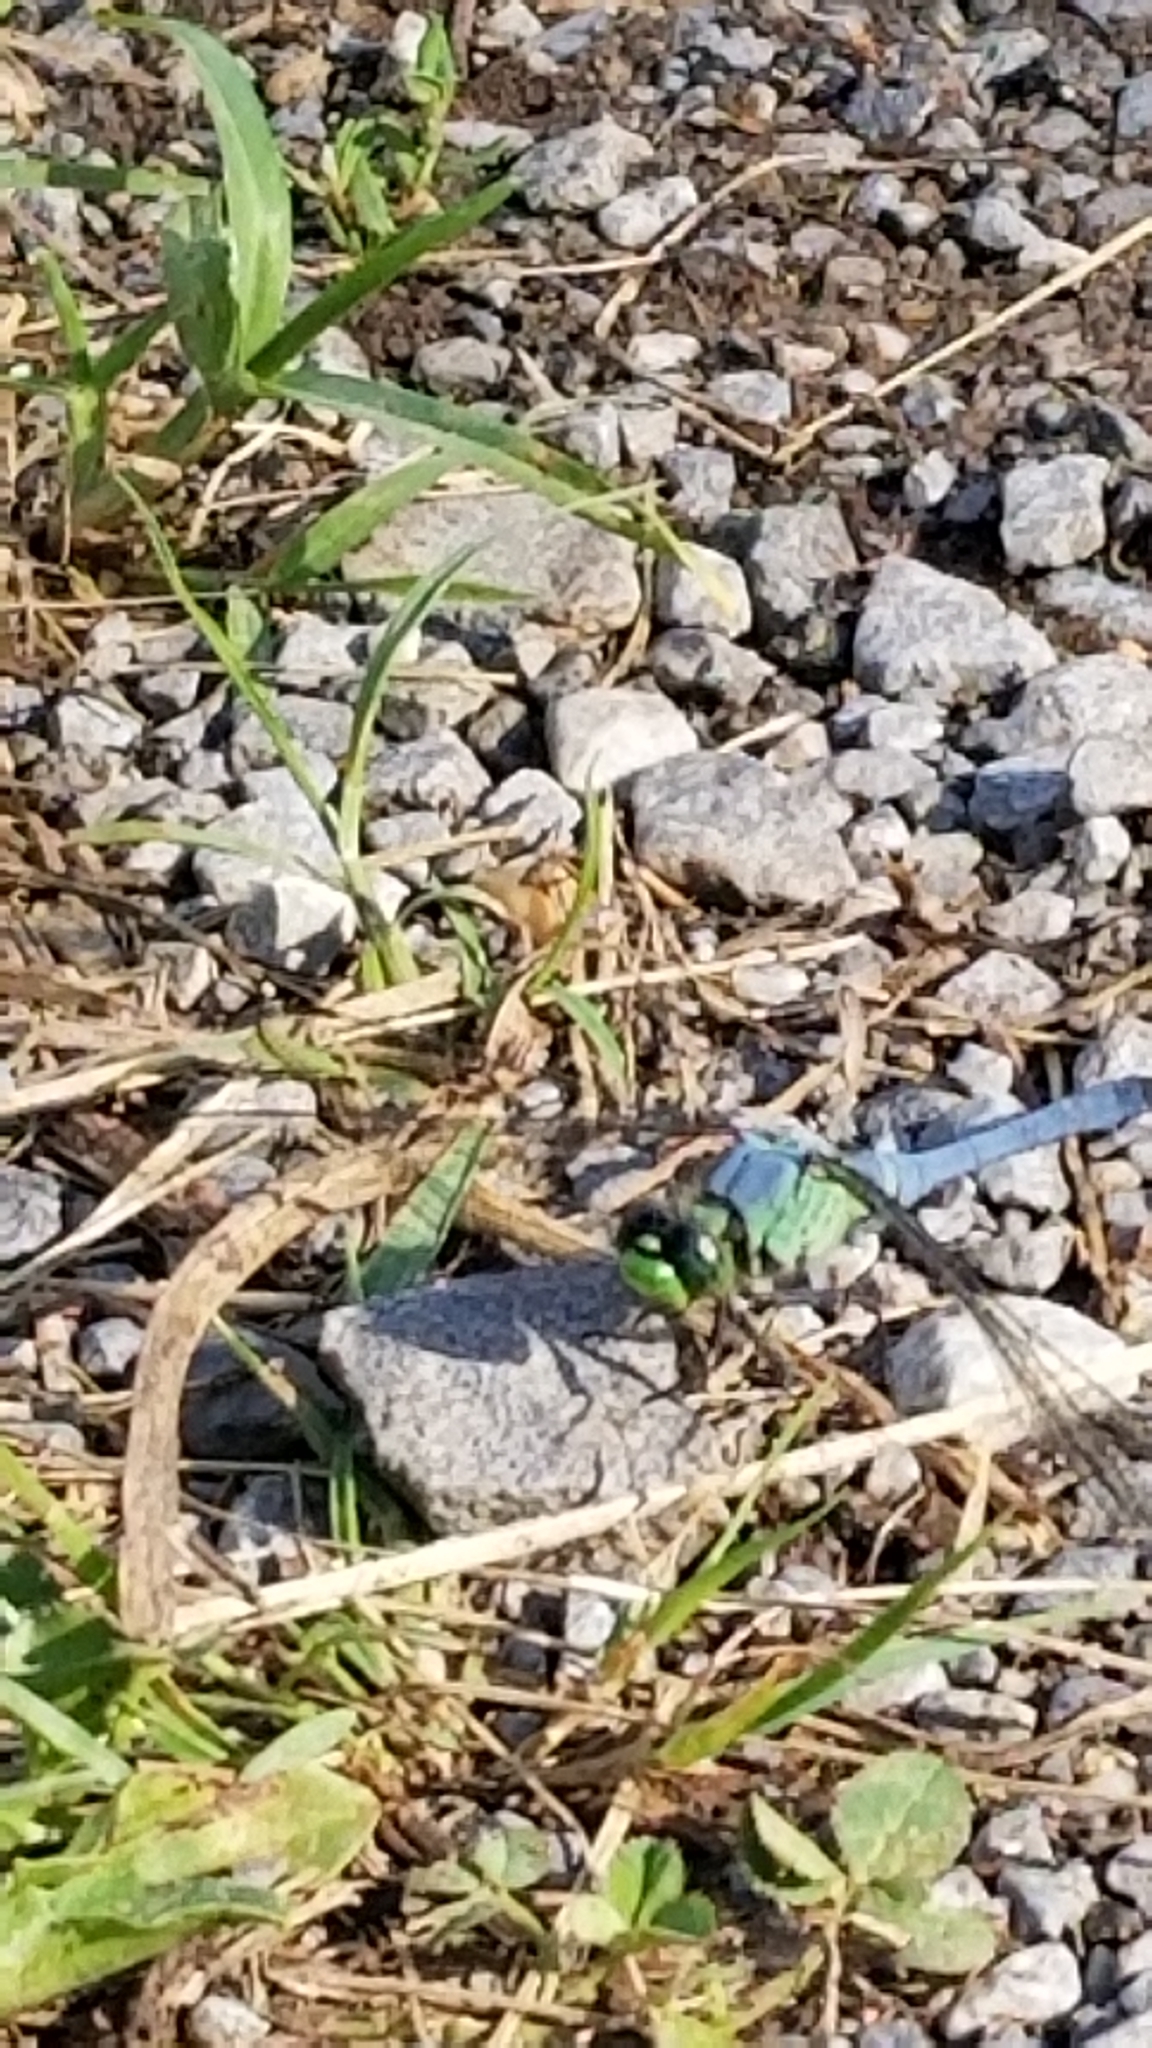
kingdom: Animalia
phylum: Arthropoda
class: Insecta
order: Odonata
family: Libellulidae
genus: Erythemis
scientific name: Erythemis simplicicollis
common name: Eastern pondhawk
